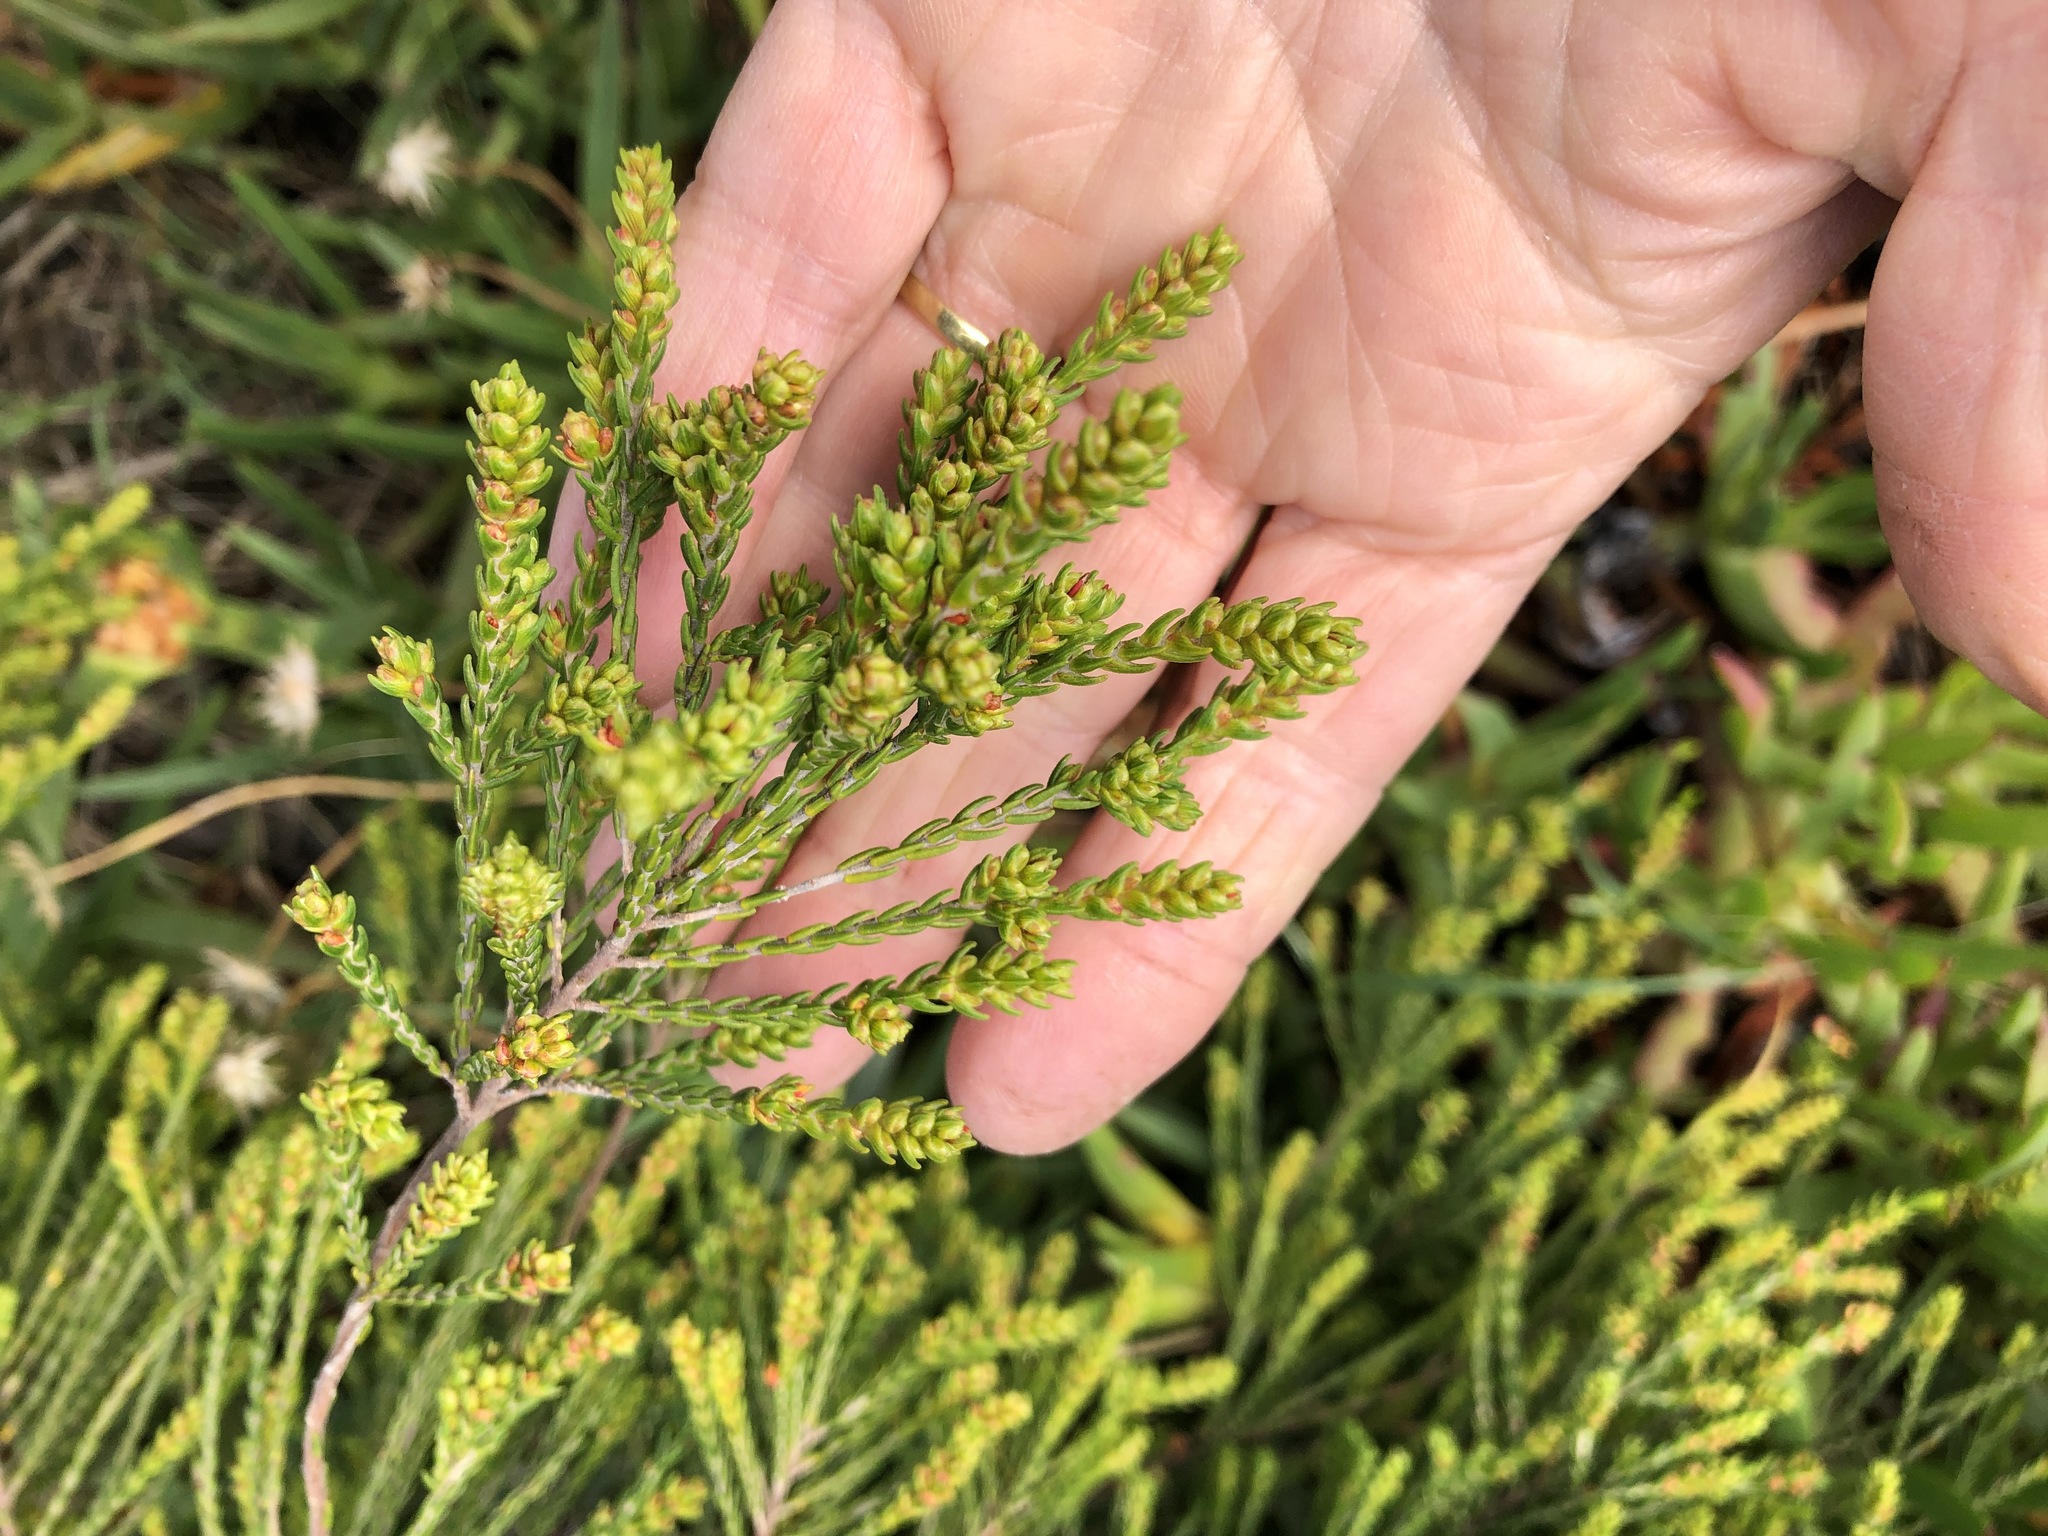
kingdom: Plantae
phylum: Tracheophyta
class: Magnoliopsida
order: Malvales
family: Thymelaeaceae
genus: Passerina
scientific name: Passerina corymbosa
